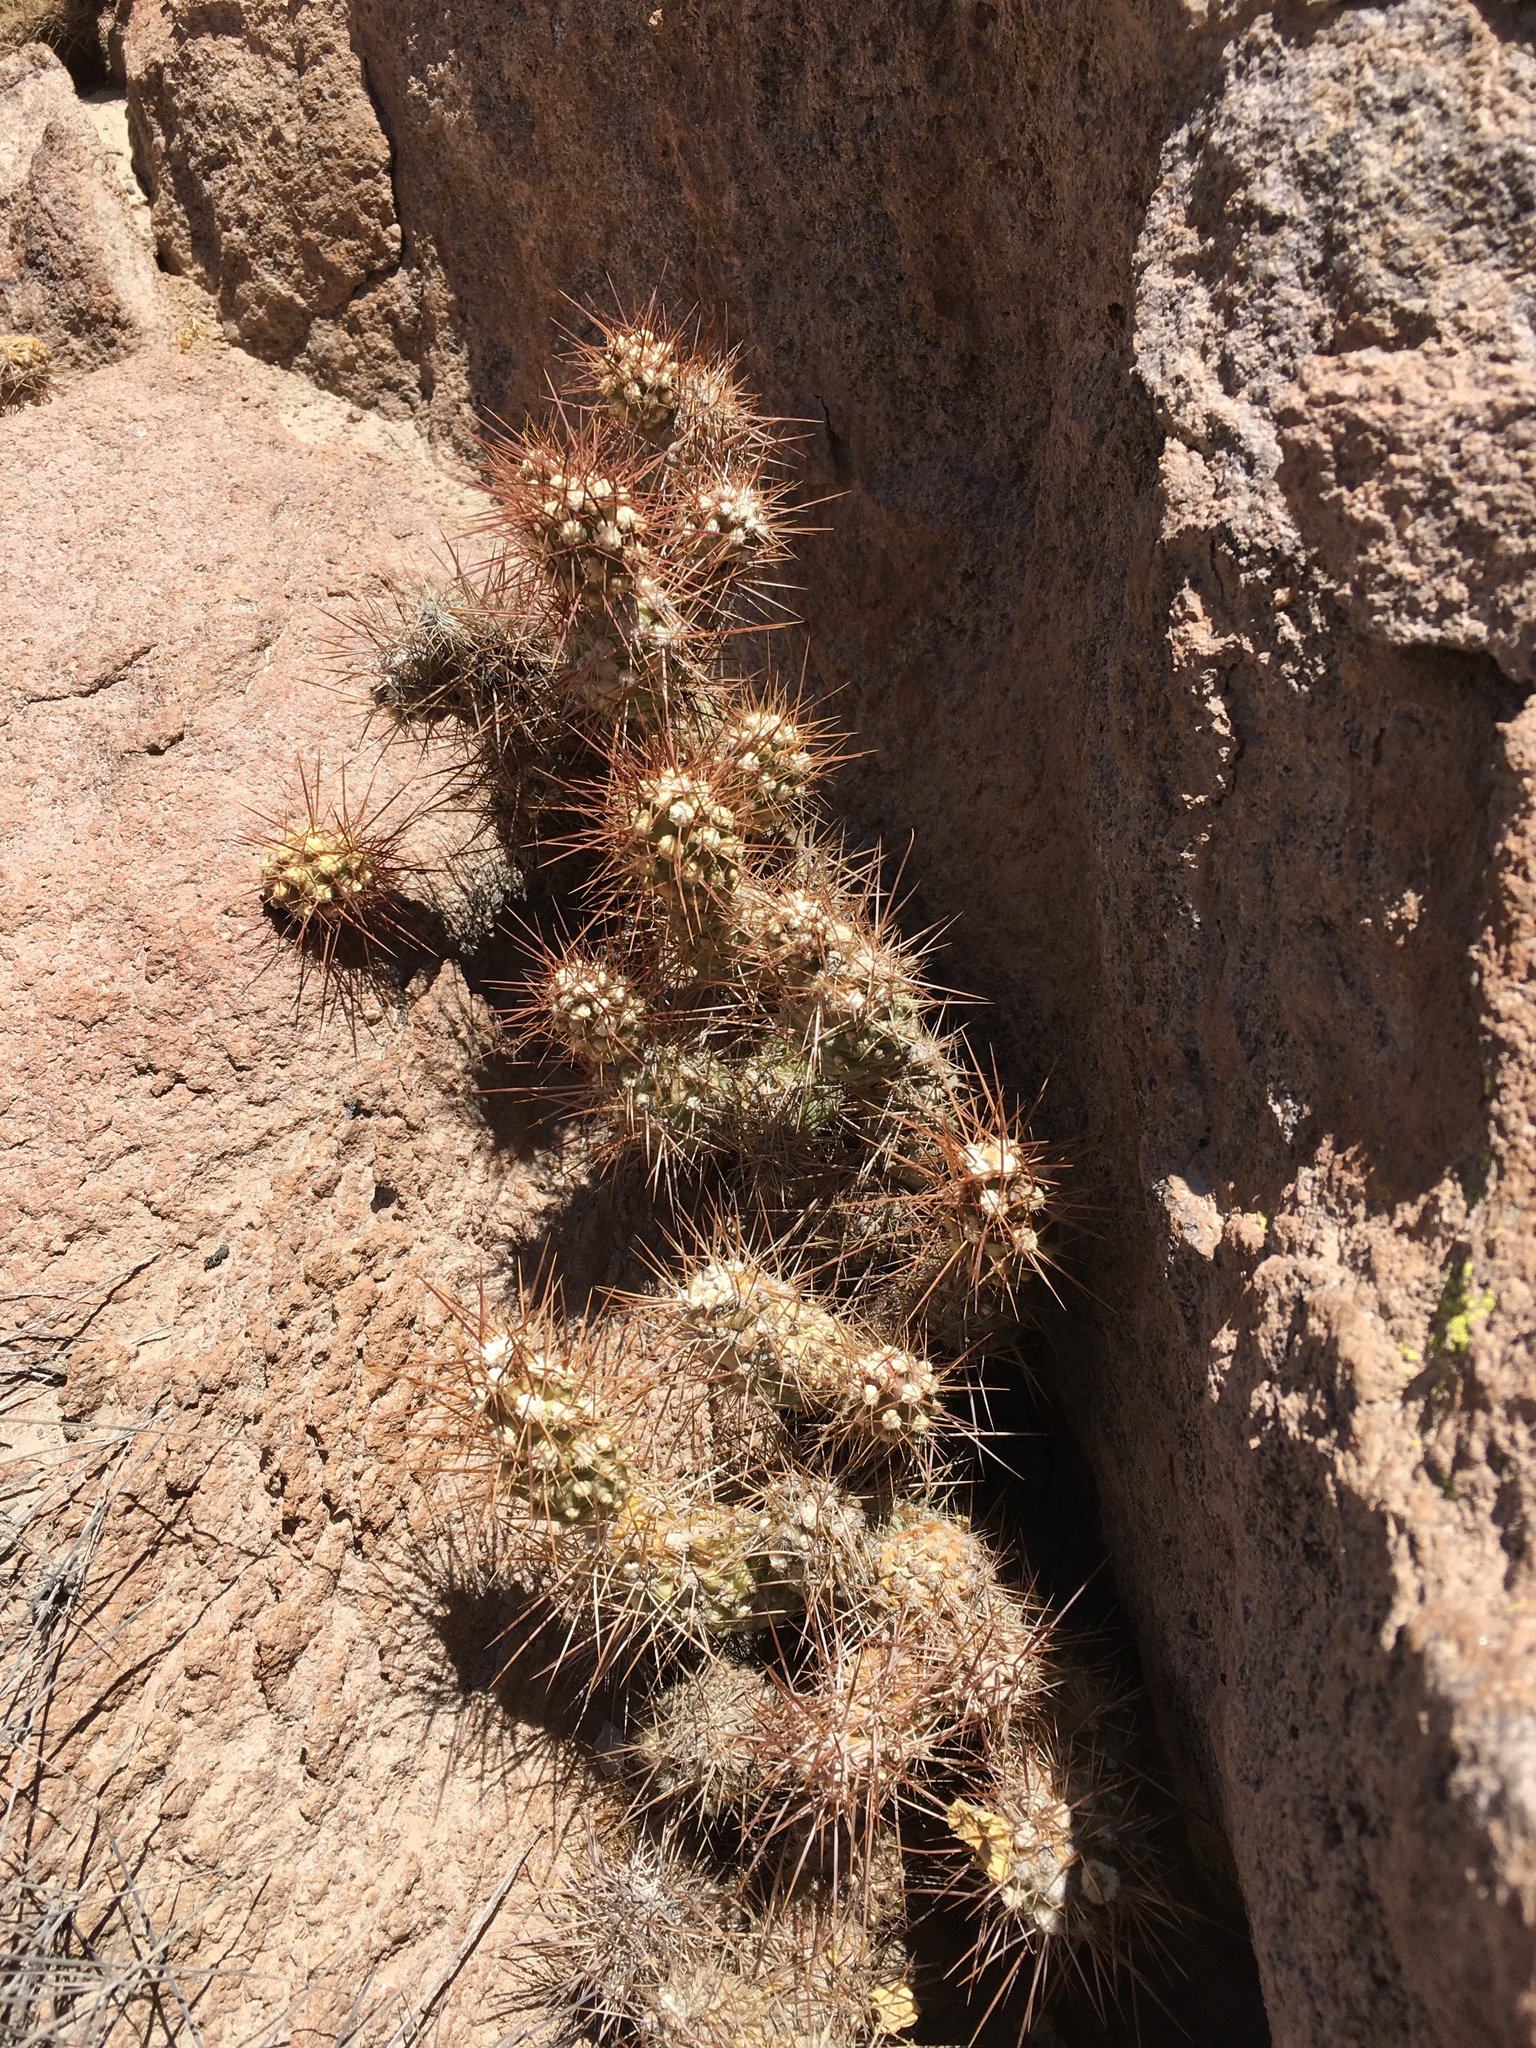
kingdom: Plantae
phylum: Tracheophyta
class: Magnoliopsida
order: Caryophyllales
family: Cactaceae
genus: Cumulopuntia
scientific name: Cumulopuntia leucophaea
